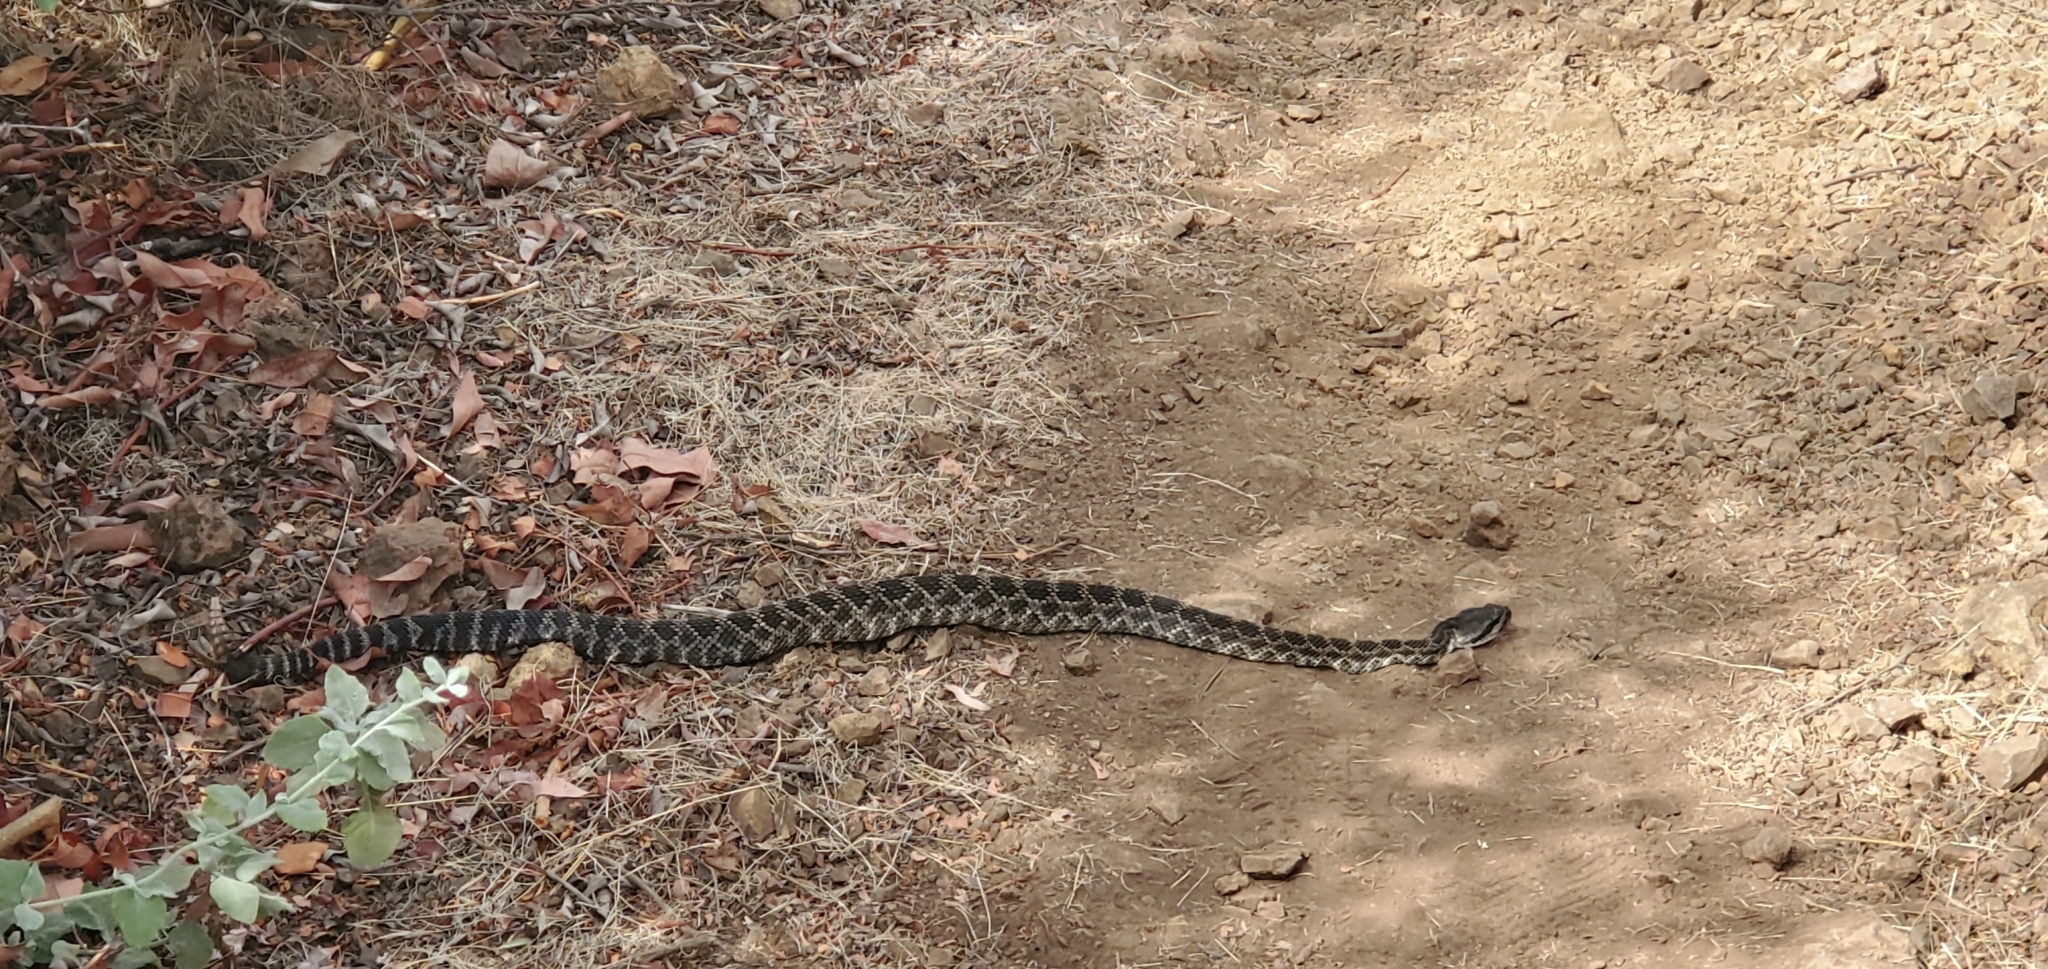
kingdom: Animalia
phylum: Chordata
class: Squamata
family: Viperidae
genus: Crotalus
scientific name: Crotalus oreganus
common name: Abyssus
